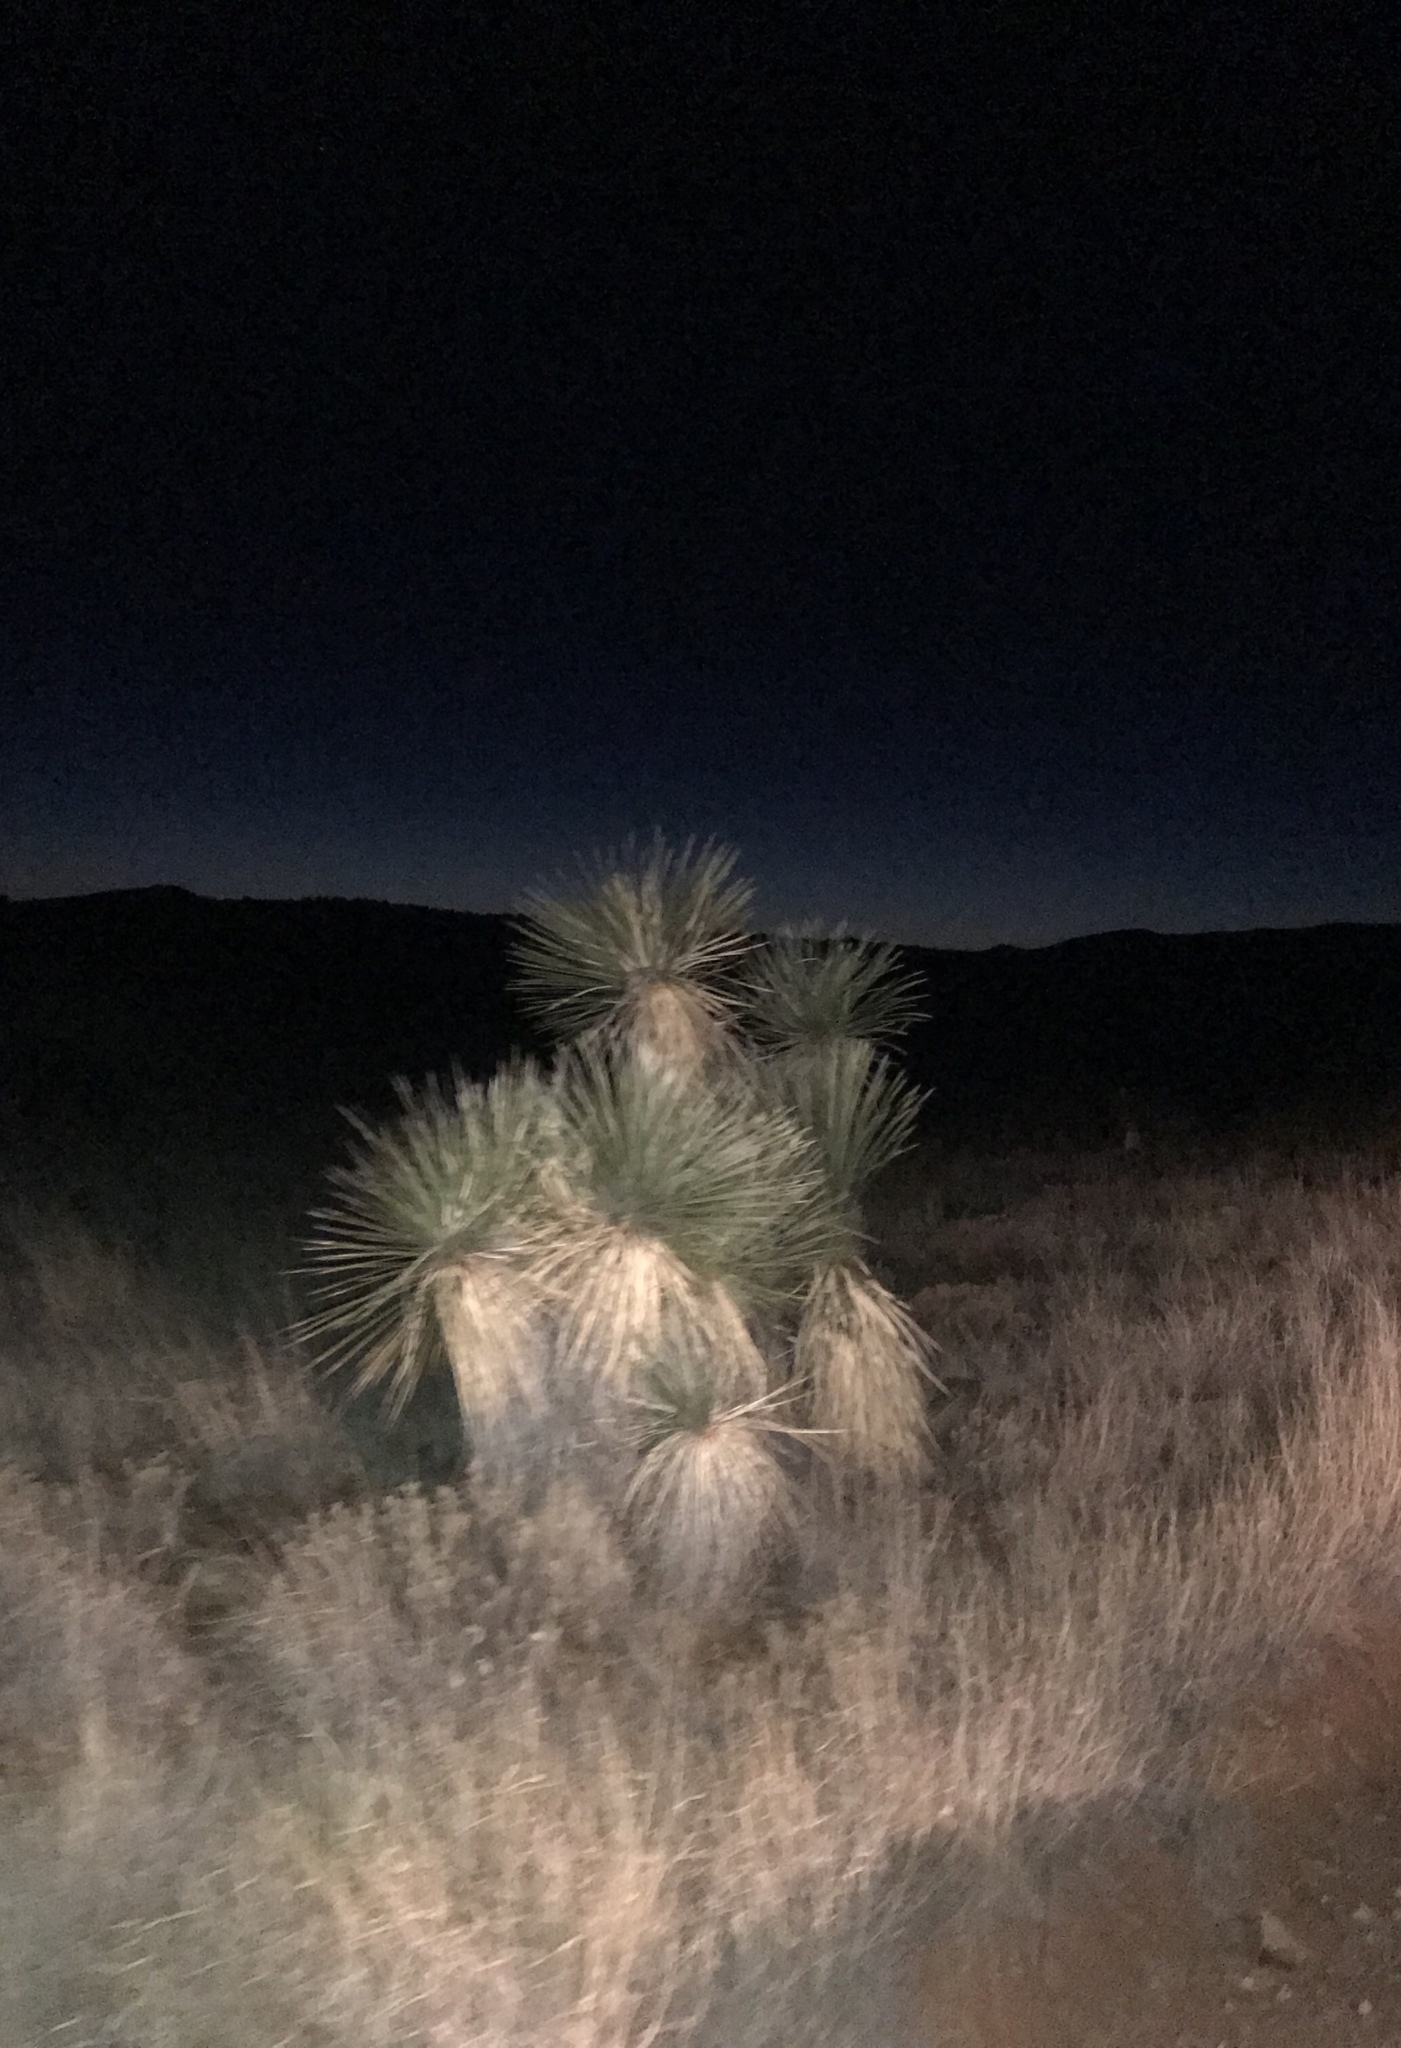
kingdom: Plantae
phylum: Tracheophyta
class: Liliopsida
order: Asparagales
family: Asparagaceae
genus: Yucca
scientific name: Yucca elata
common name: Palmella
